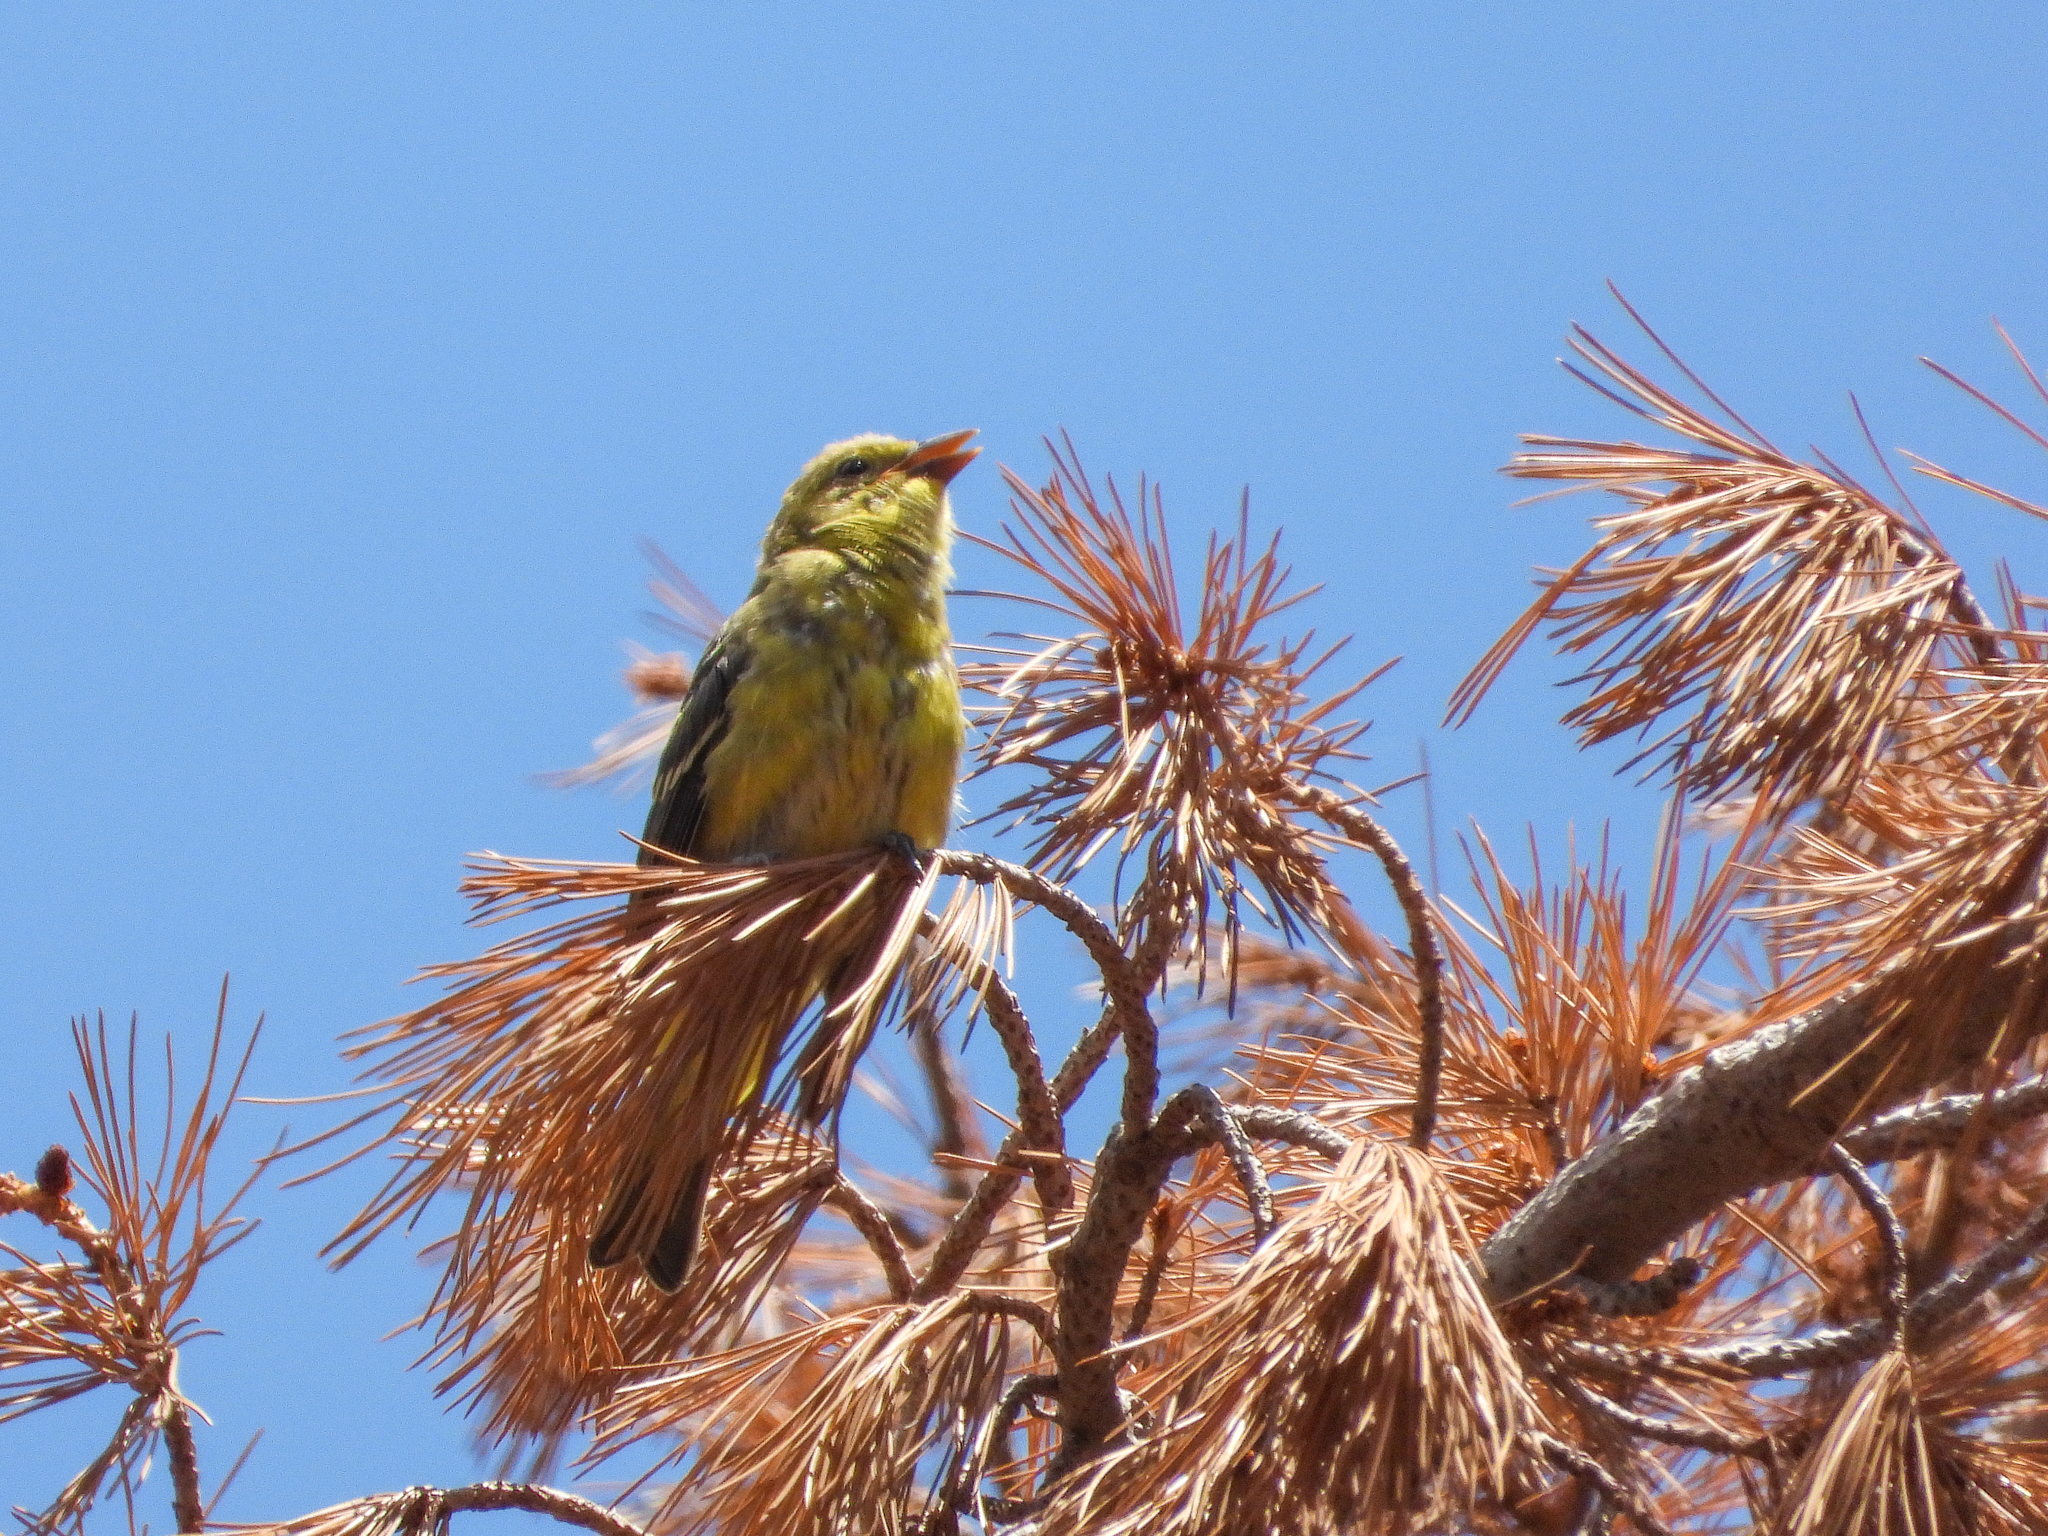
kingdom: Animalia
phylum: Chordata
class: Aves
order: Passeriformes
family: Cardinalidae
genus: Piranga
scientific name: Piranga ludoviciana
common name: Western tanager
